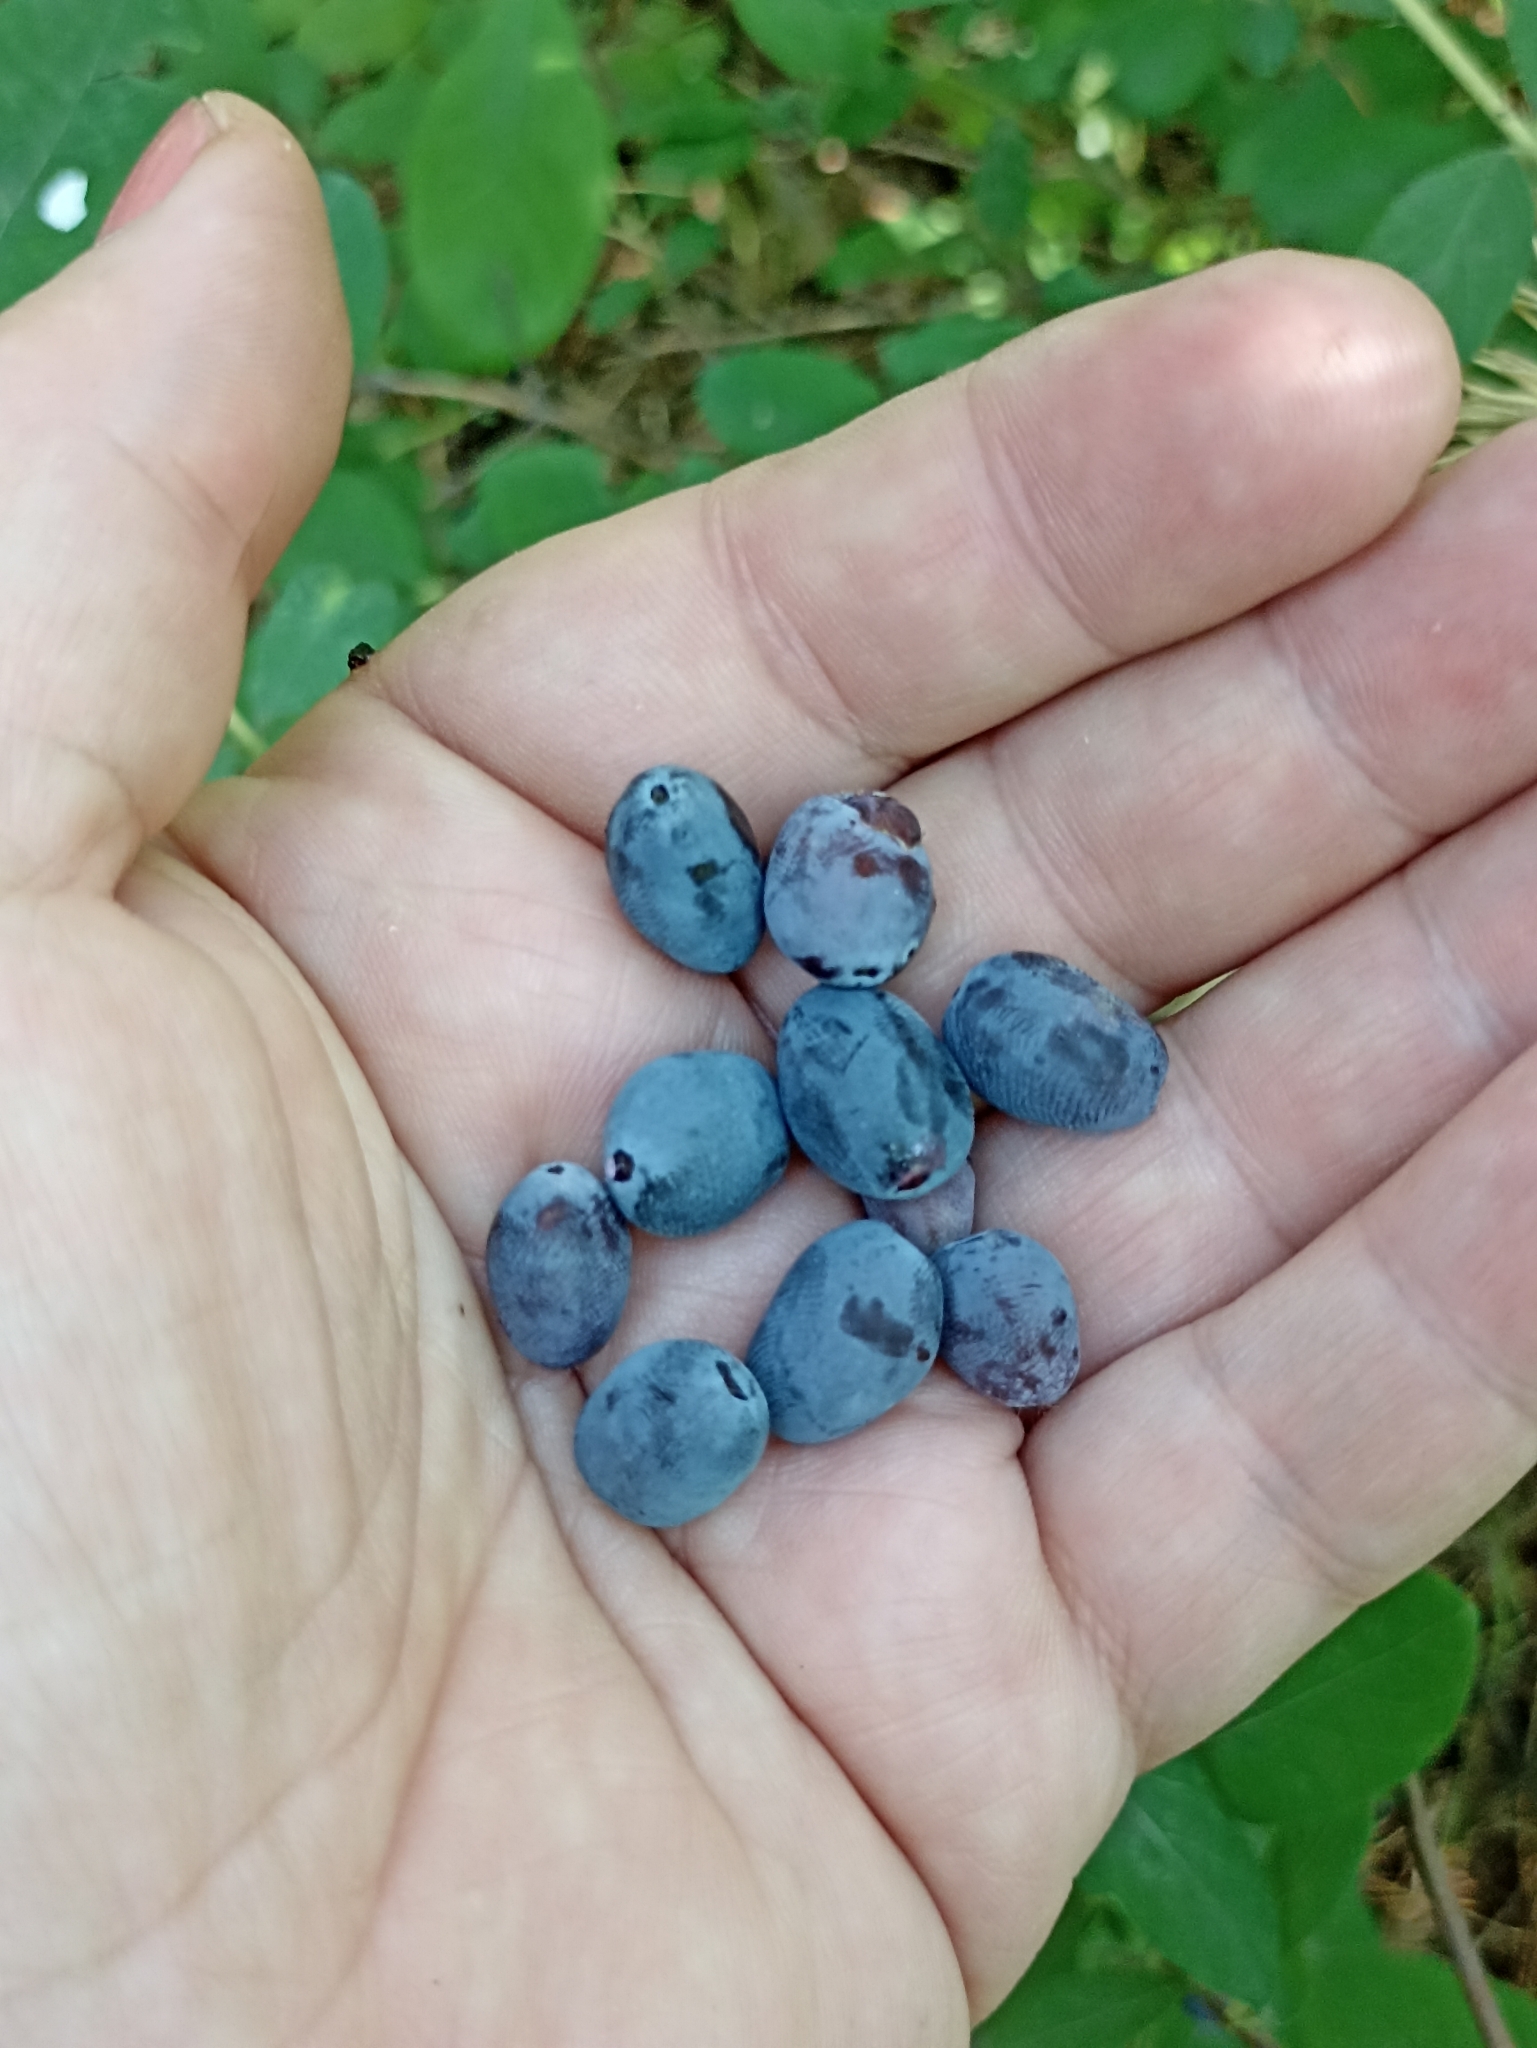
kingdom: Plantae
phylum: Tracheophyta
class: Magnoliopsida
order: Dipsacales
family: Caprifoliaceae
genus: Lonicera
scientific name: Lonicera caerulea
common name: Blue honeysuckle
